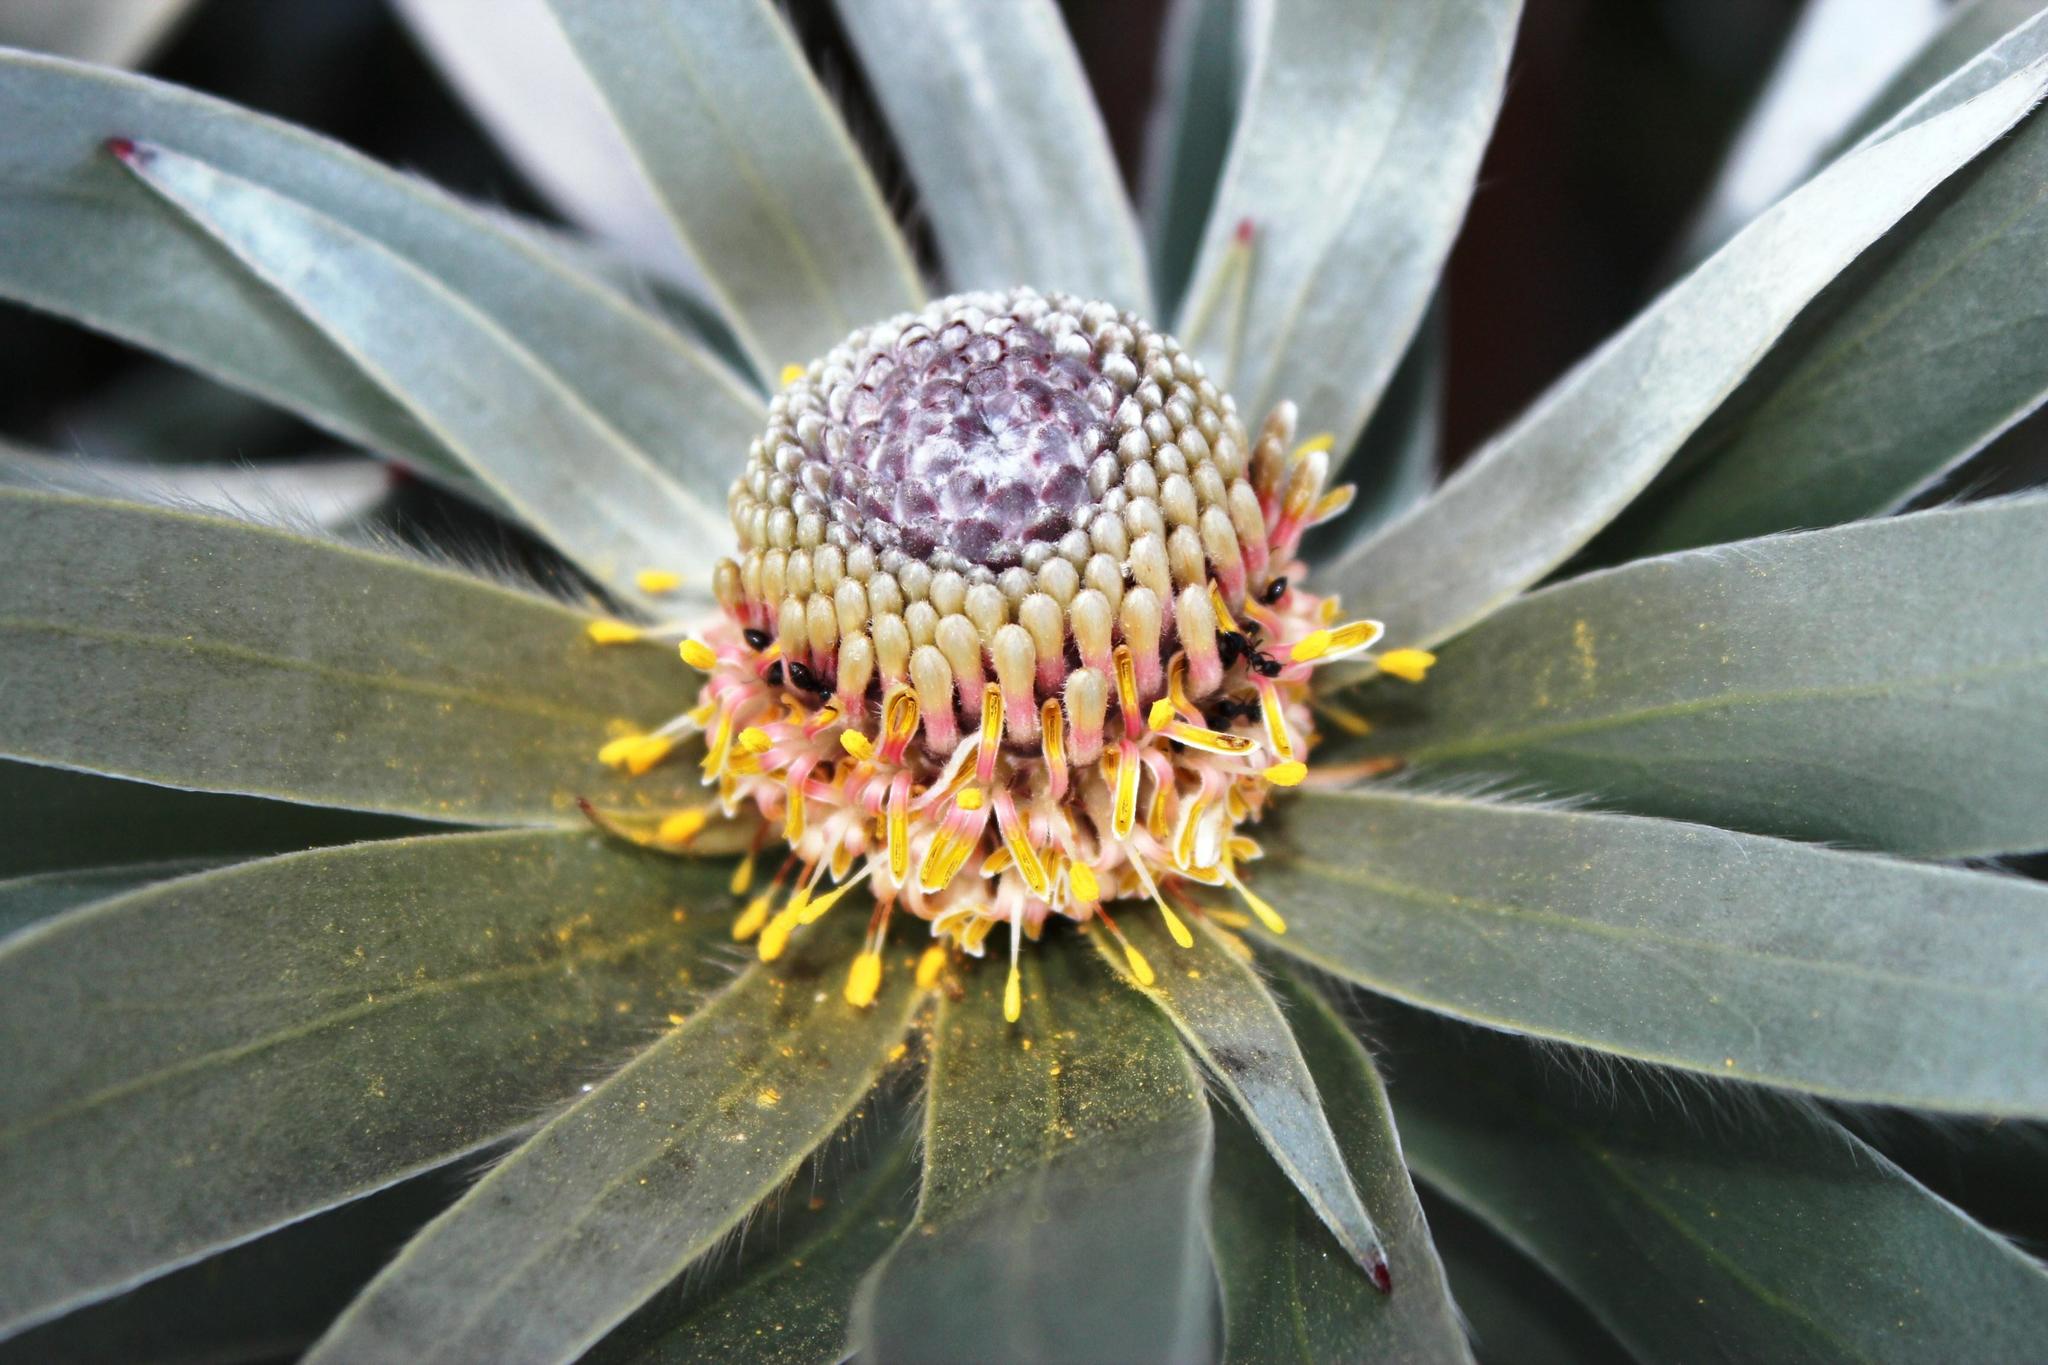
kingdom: Plantae
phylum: Tracheophyta
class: Magnoliopsida
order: Proteales
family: Proteaceae
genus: Leucadendron
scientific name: Leucadendron argenteum
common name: Cape silver tree
